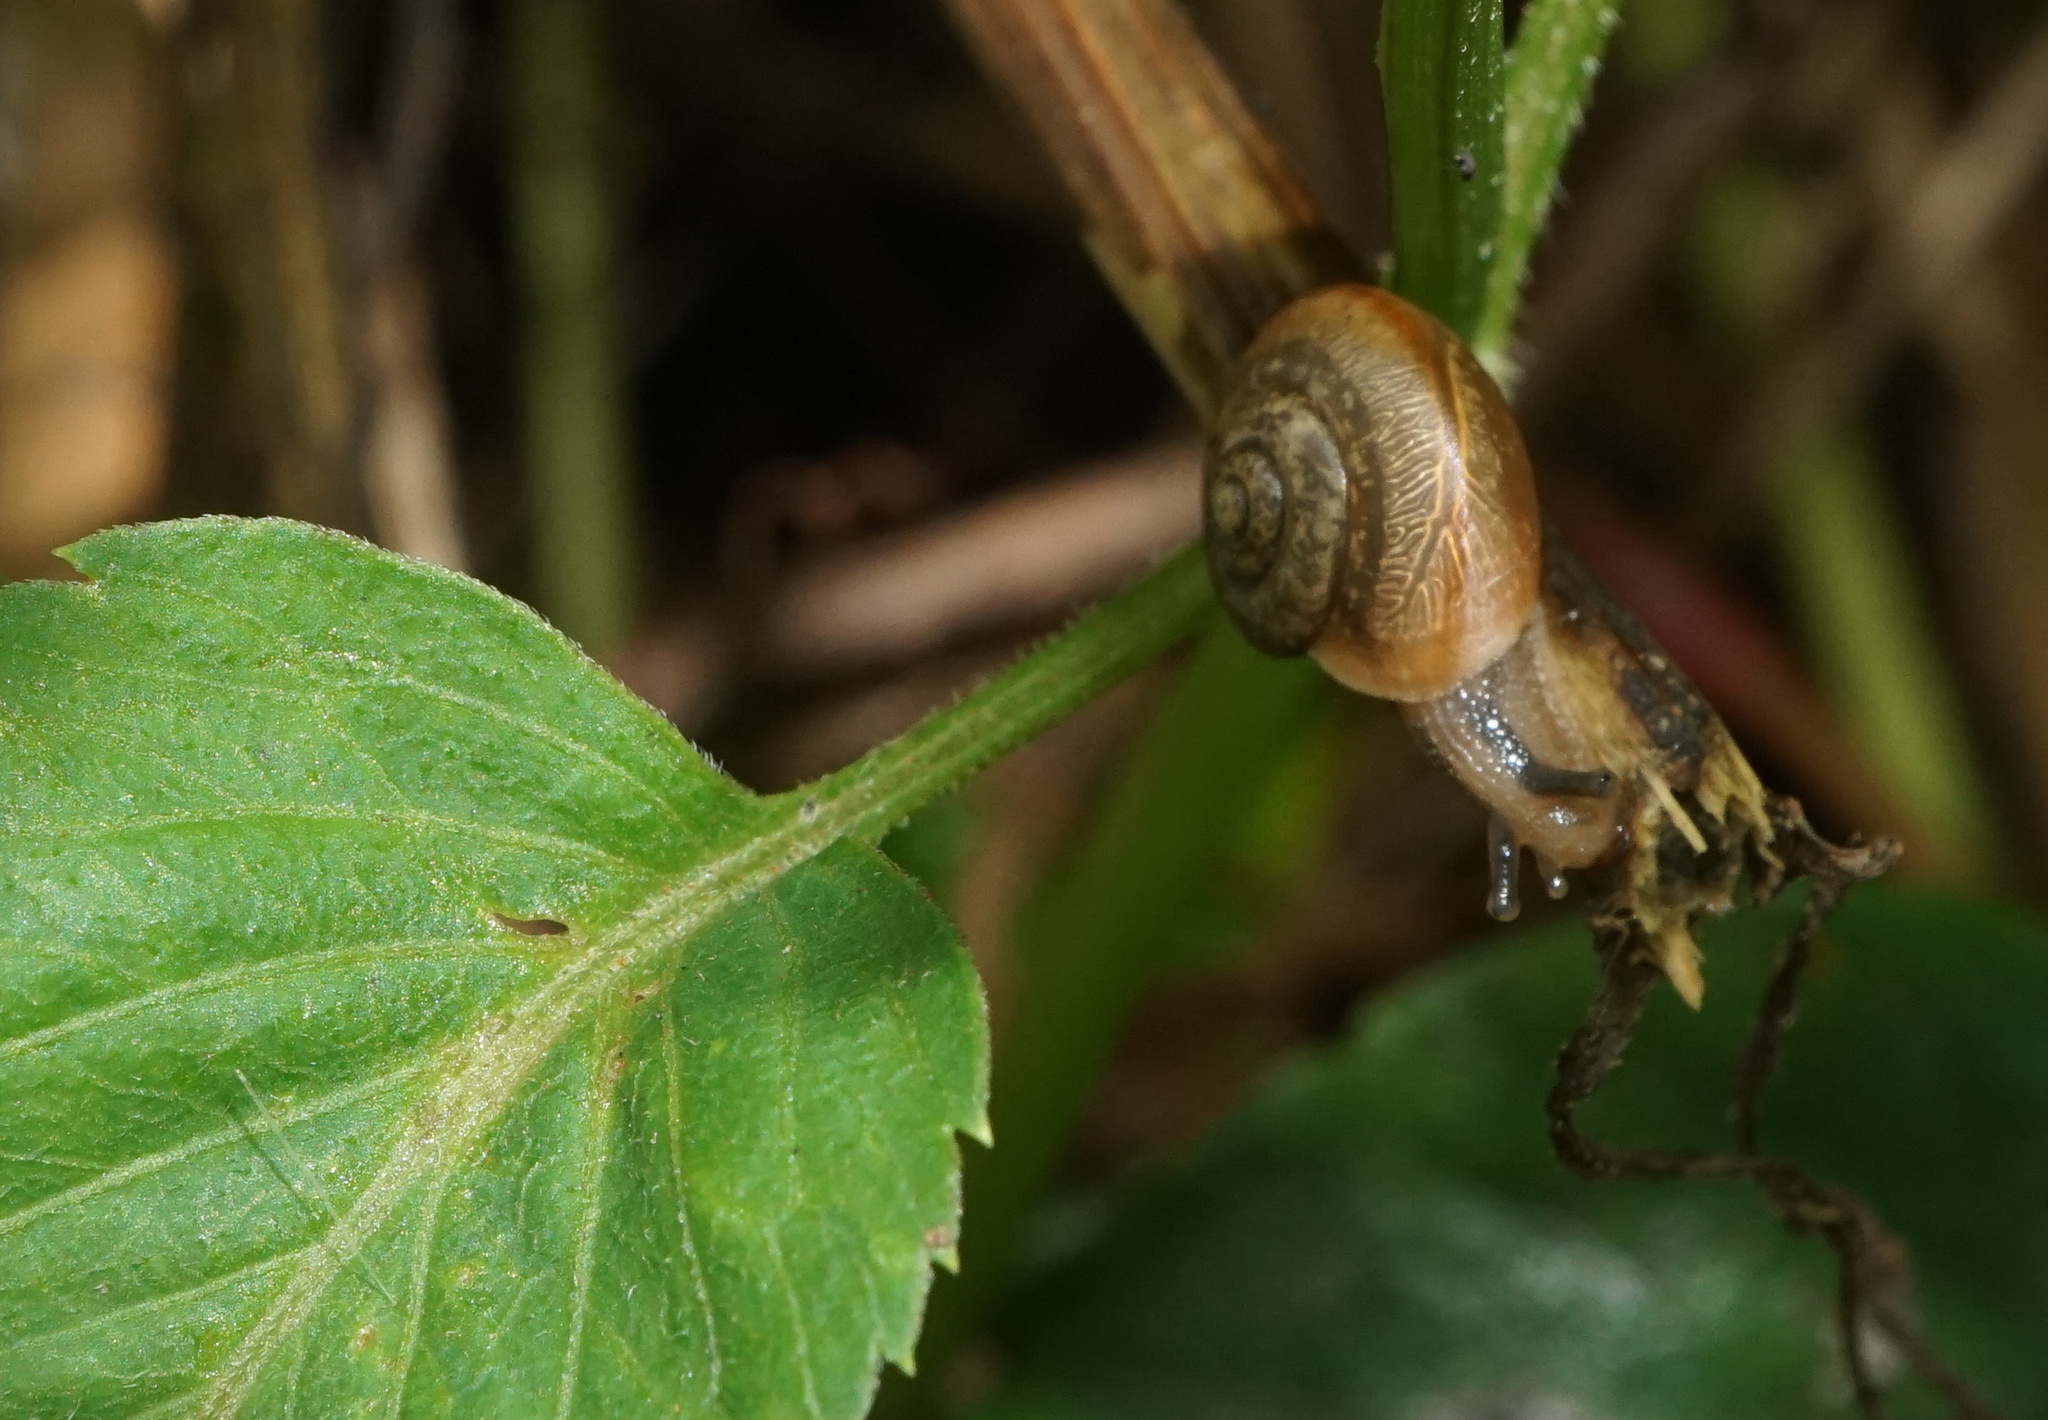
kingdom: Animalia
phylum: Mollusca
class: Gastropoda
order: Stylommatophora
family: Camaenidae
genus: Bradybaena
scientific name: Bradybaena similaris
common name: Asian trampsnail
